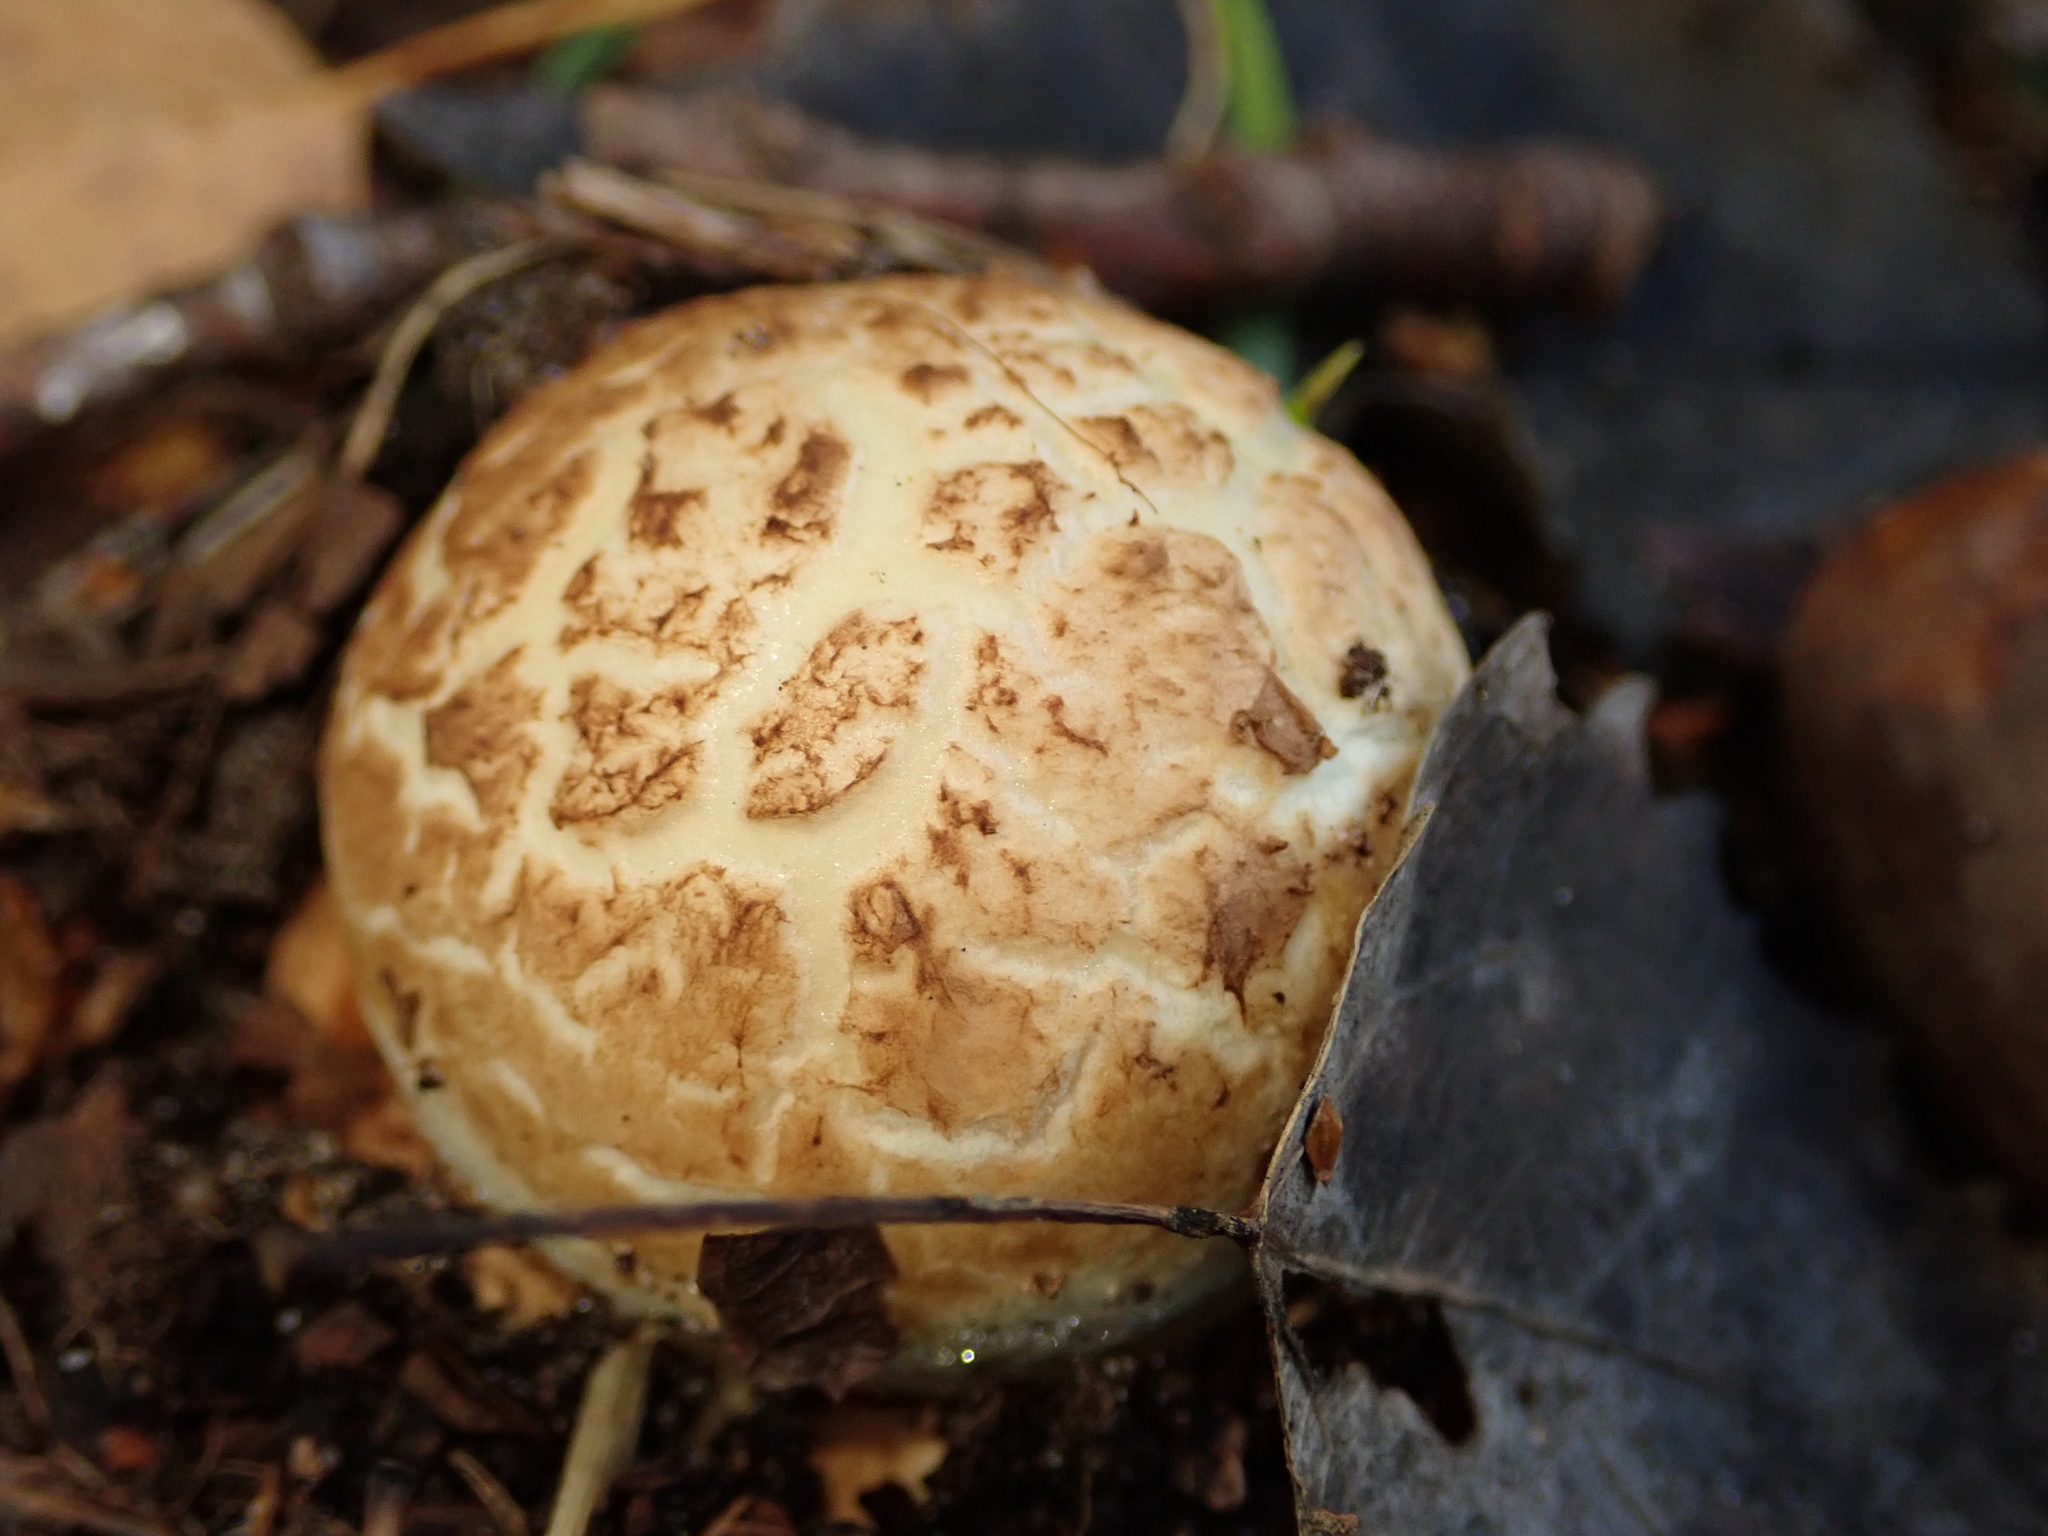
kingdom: Fungi
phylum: Basidiomycota
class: Agaricomycetes
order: Boletales
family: Sclerodermataceae
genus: Scleroderma
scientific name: Scleroderma citrinum
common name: Common earthball
